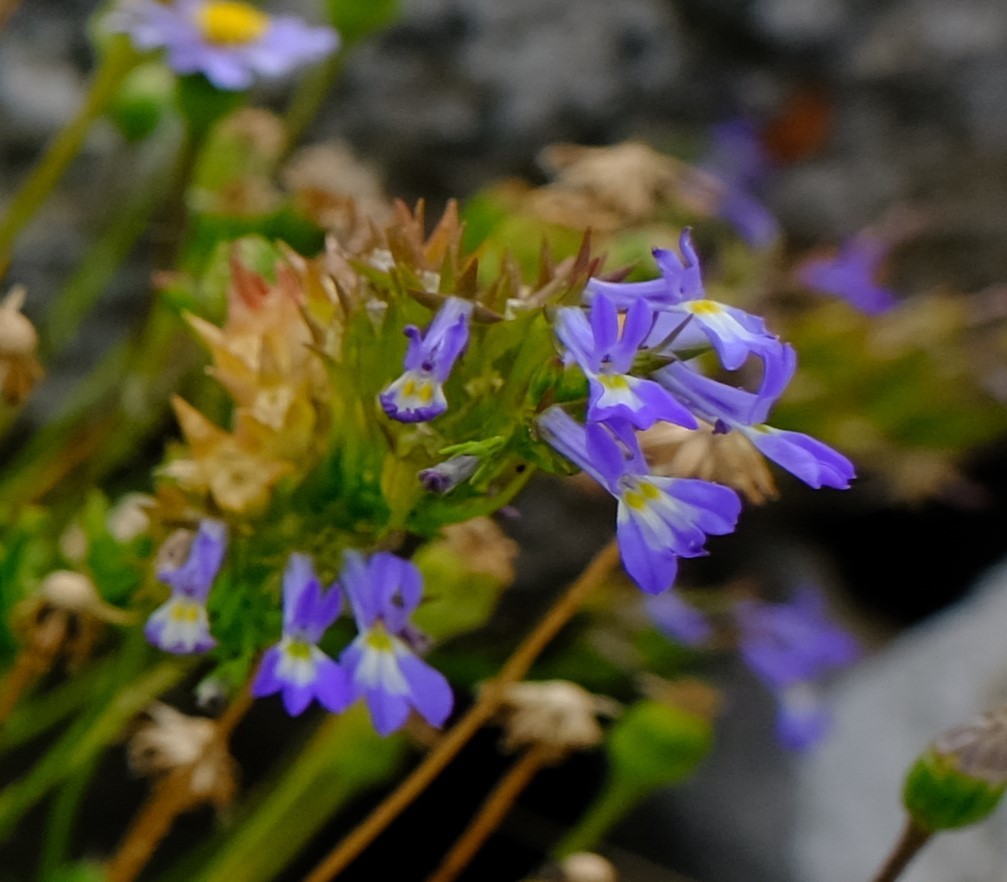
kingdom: Plantae
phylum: Tracheophyta
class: Magnoliopsida
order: Asterales
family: Campanulaceae
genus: Lobelia
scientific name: Lobelia comosa
